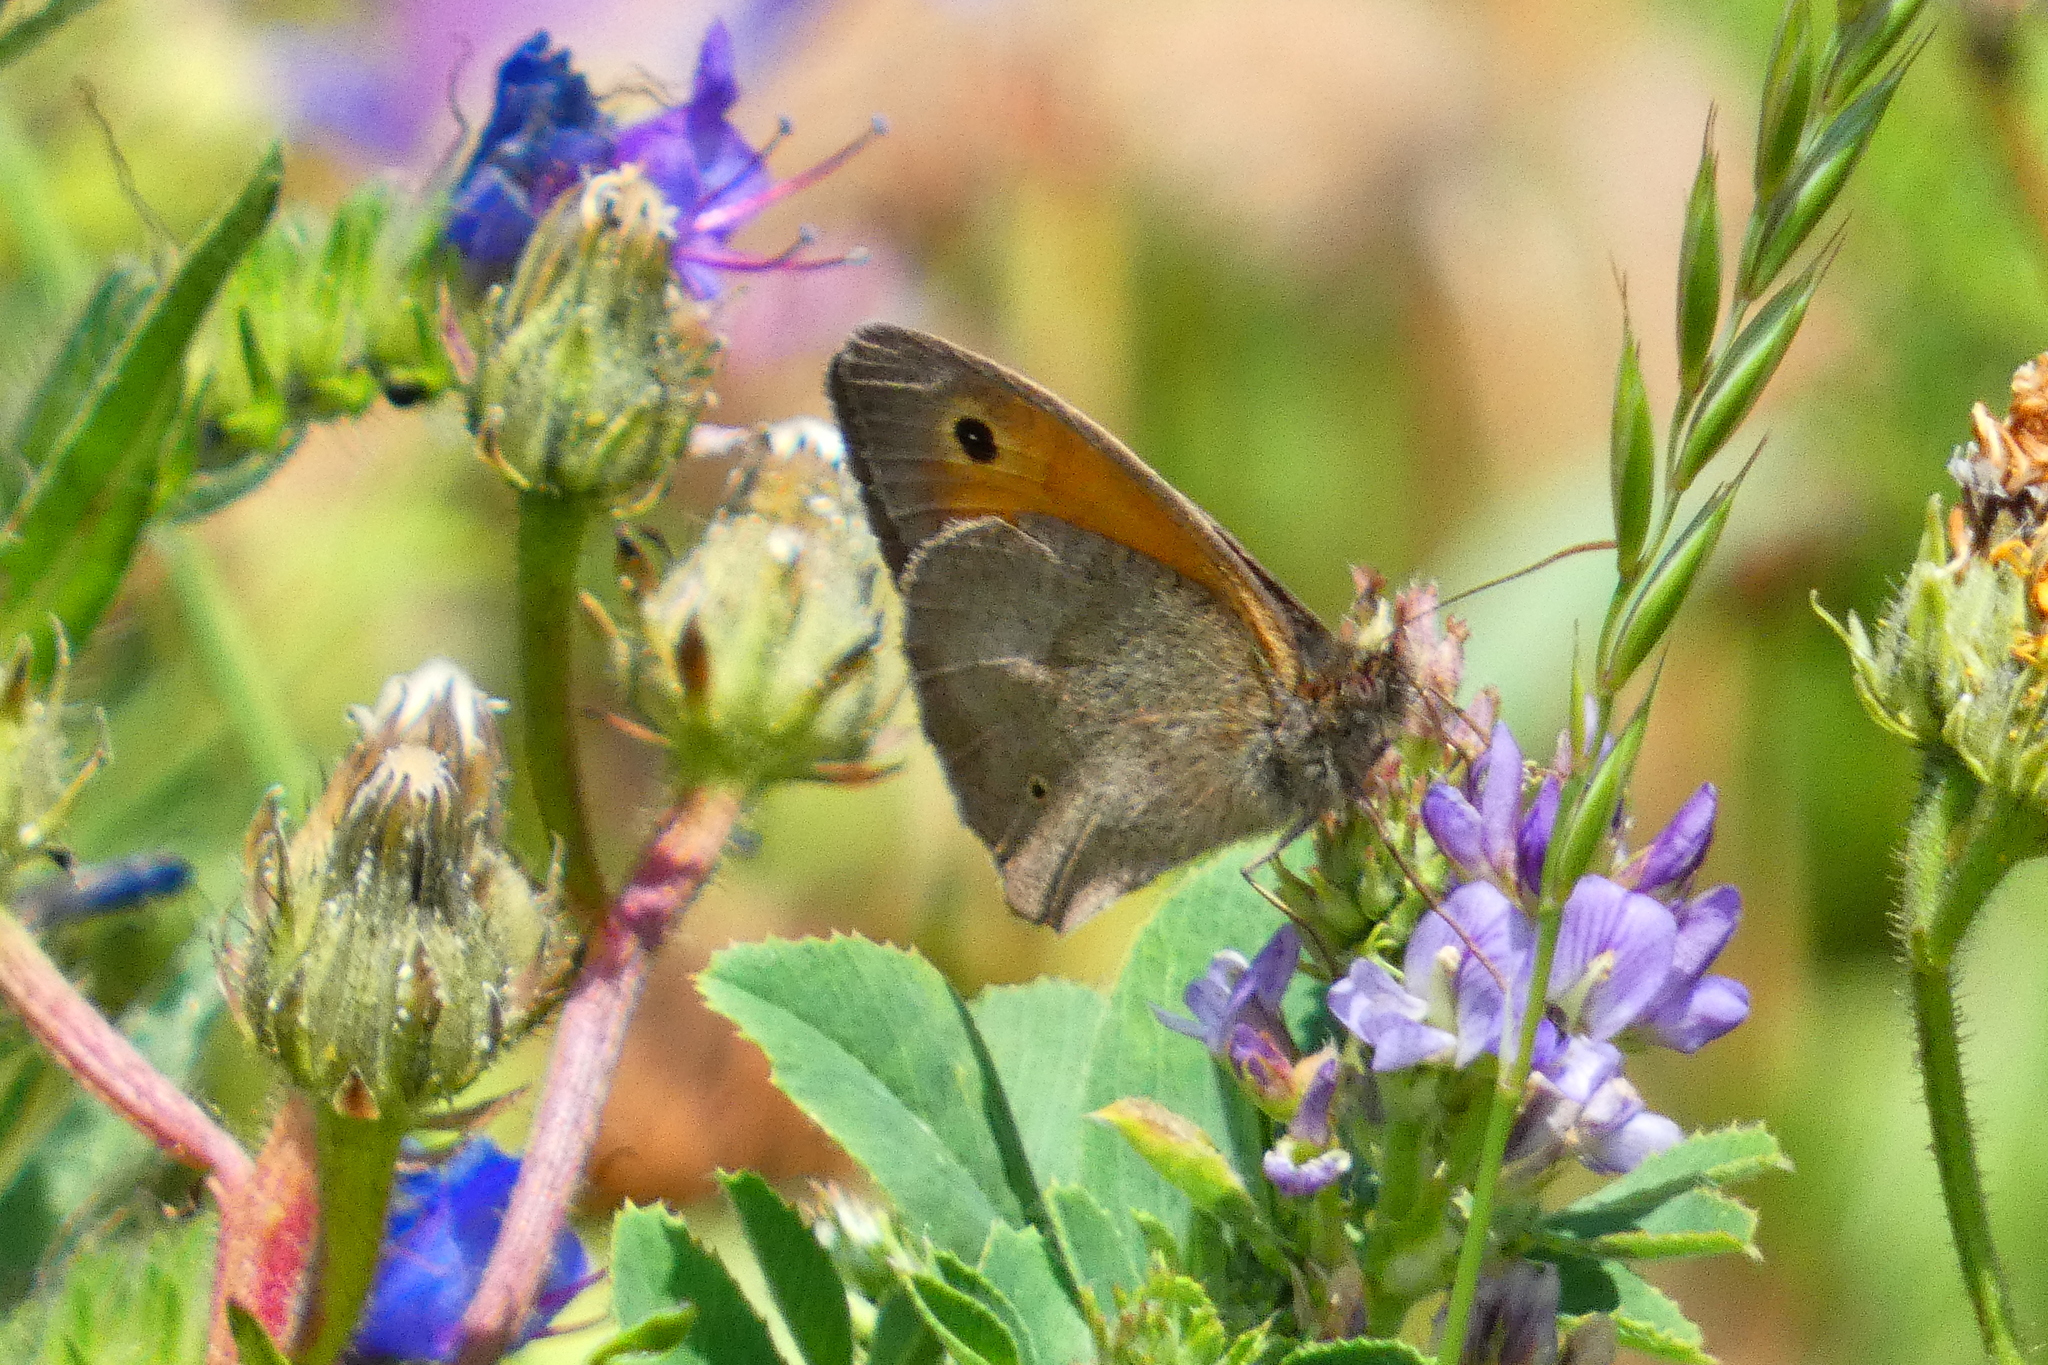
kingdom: Animalia
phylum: Arthropoda
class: Insecta
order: Lepidoptera
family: Nymphalidae
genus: Maniola
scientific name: Maniola jurtina
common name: Meadow brown
